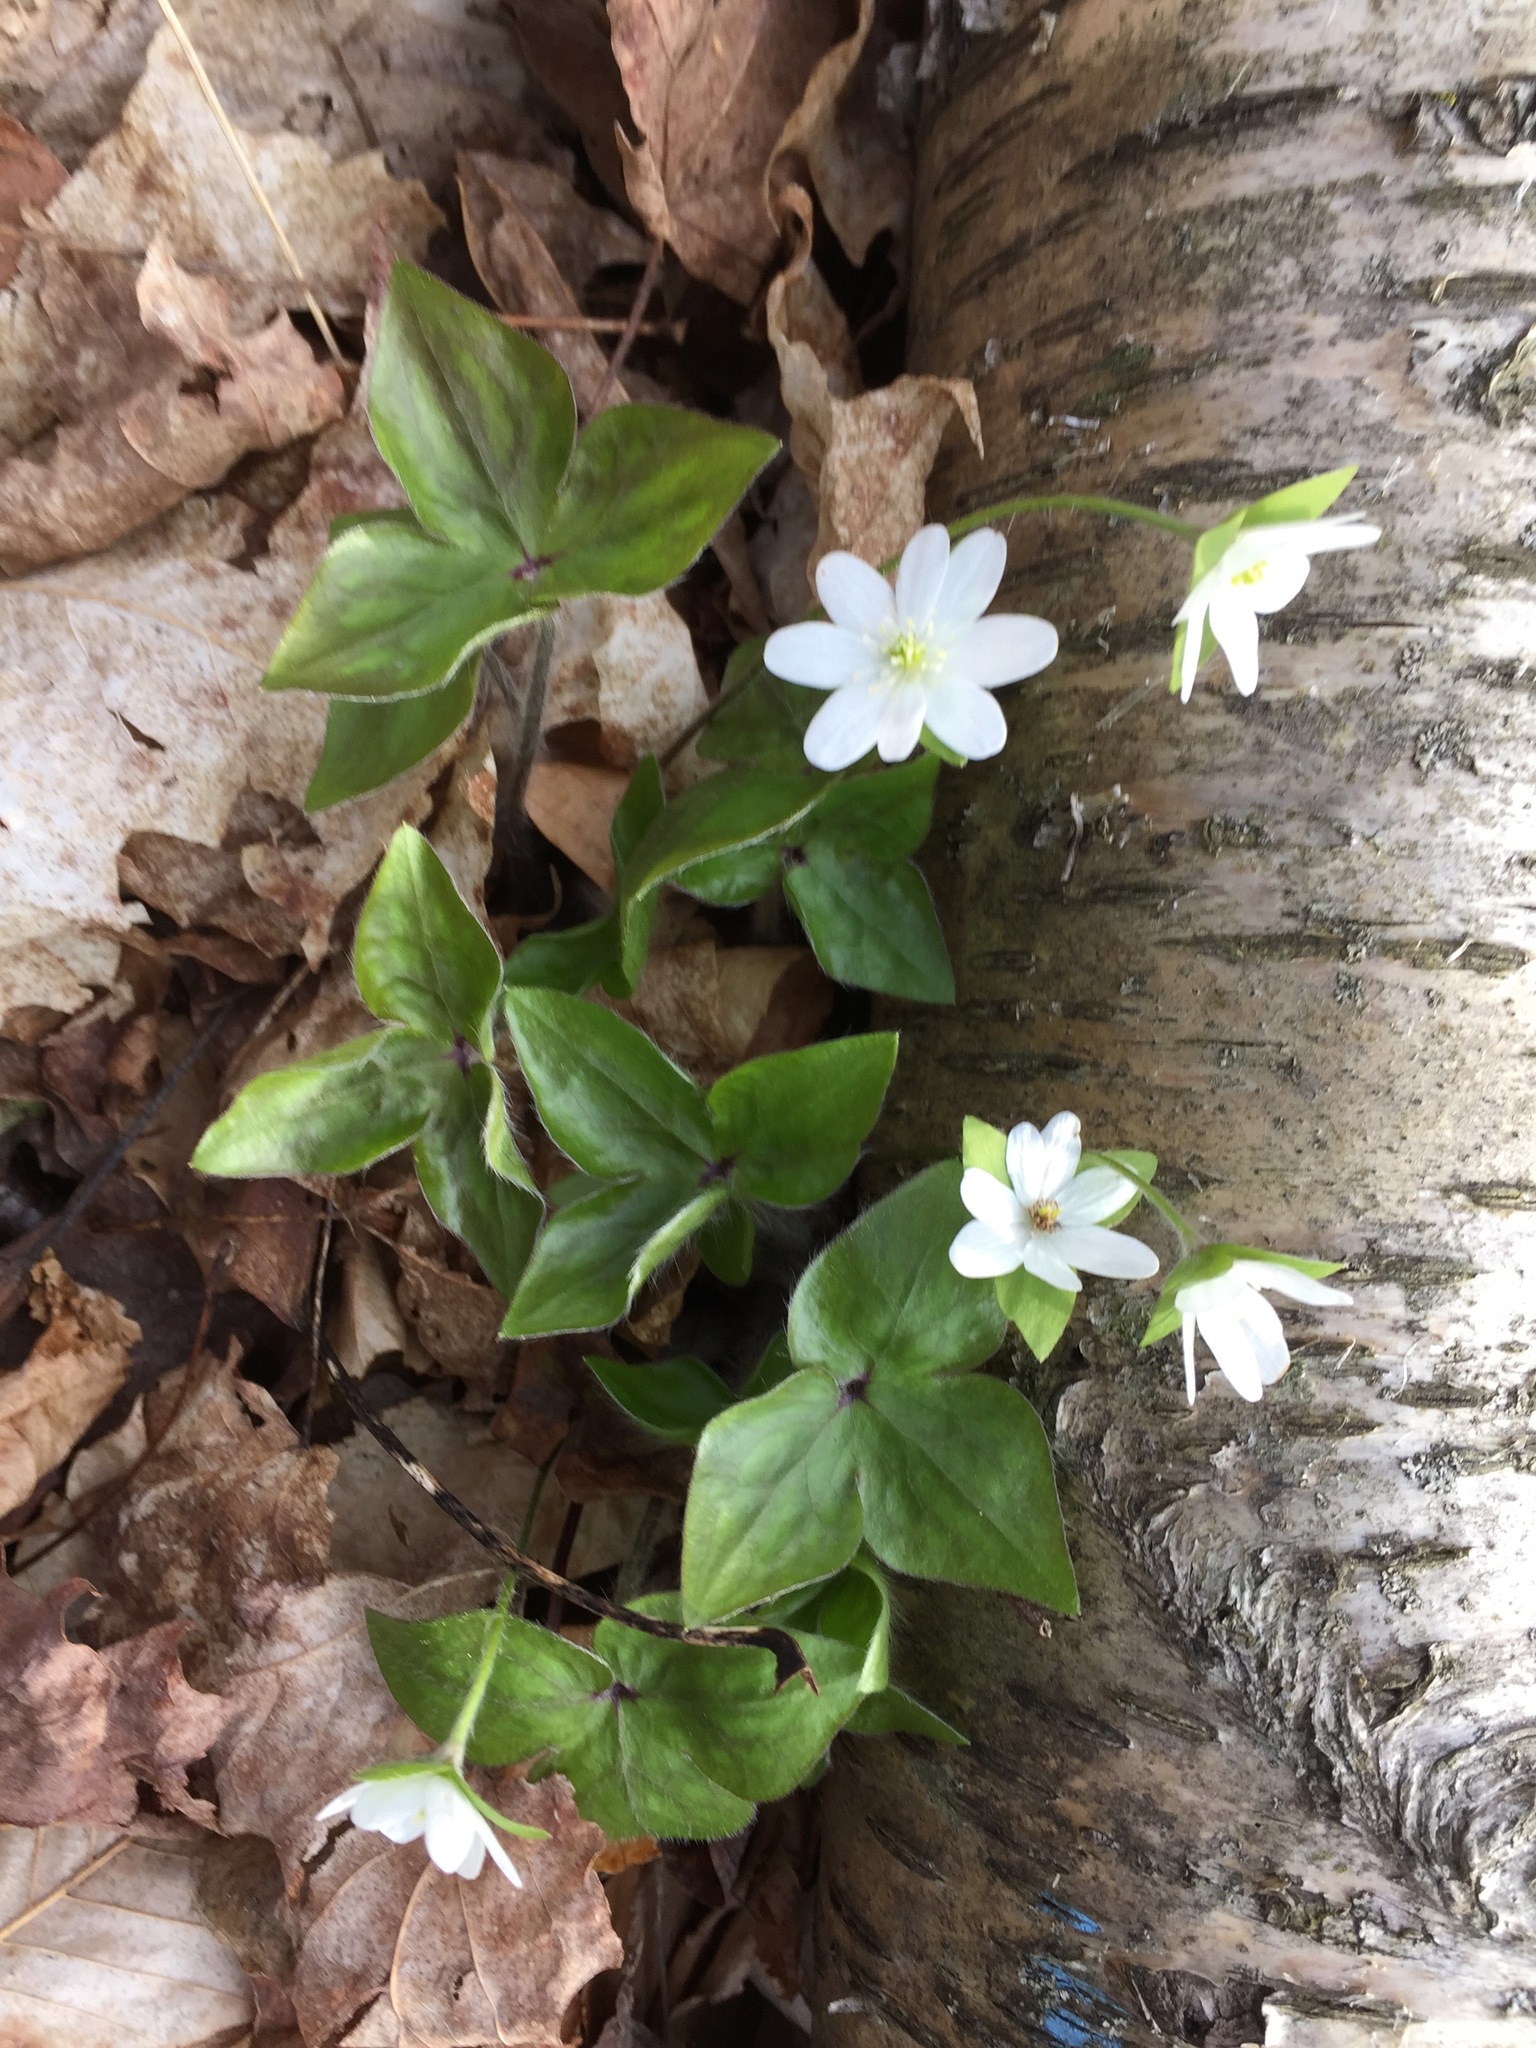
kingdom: Plantae
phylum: Tracheophyta
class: Magnoliopsida
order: Ranunculales
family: Ranunculaceae
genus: Hepatica
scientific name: Hepatica acutiloba
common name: Sharp-lobed hepatica
